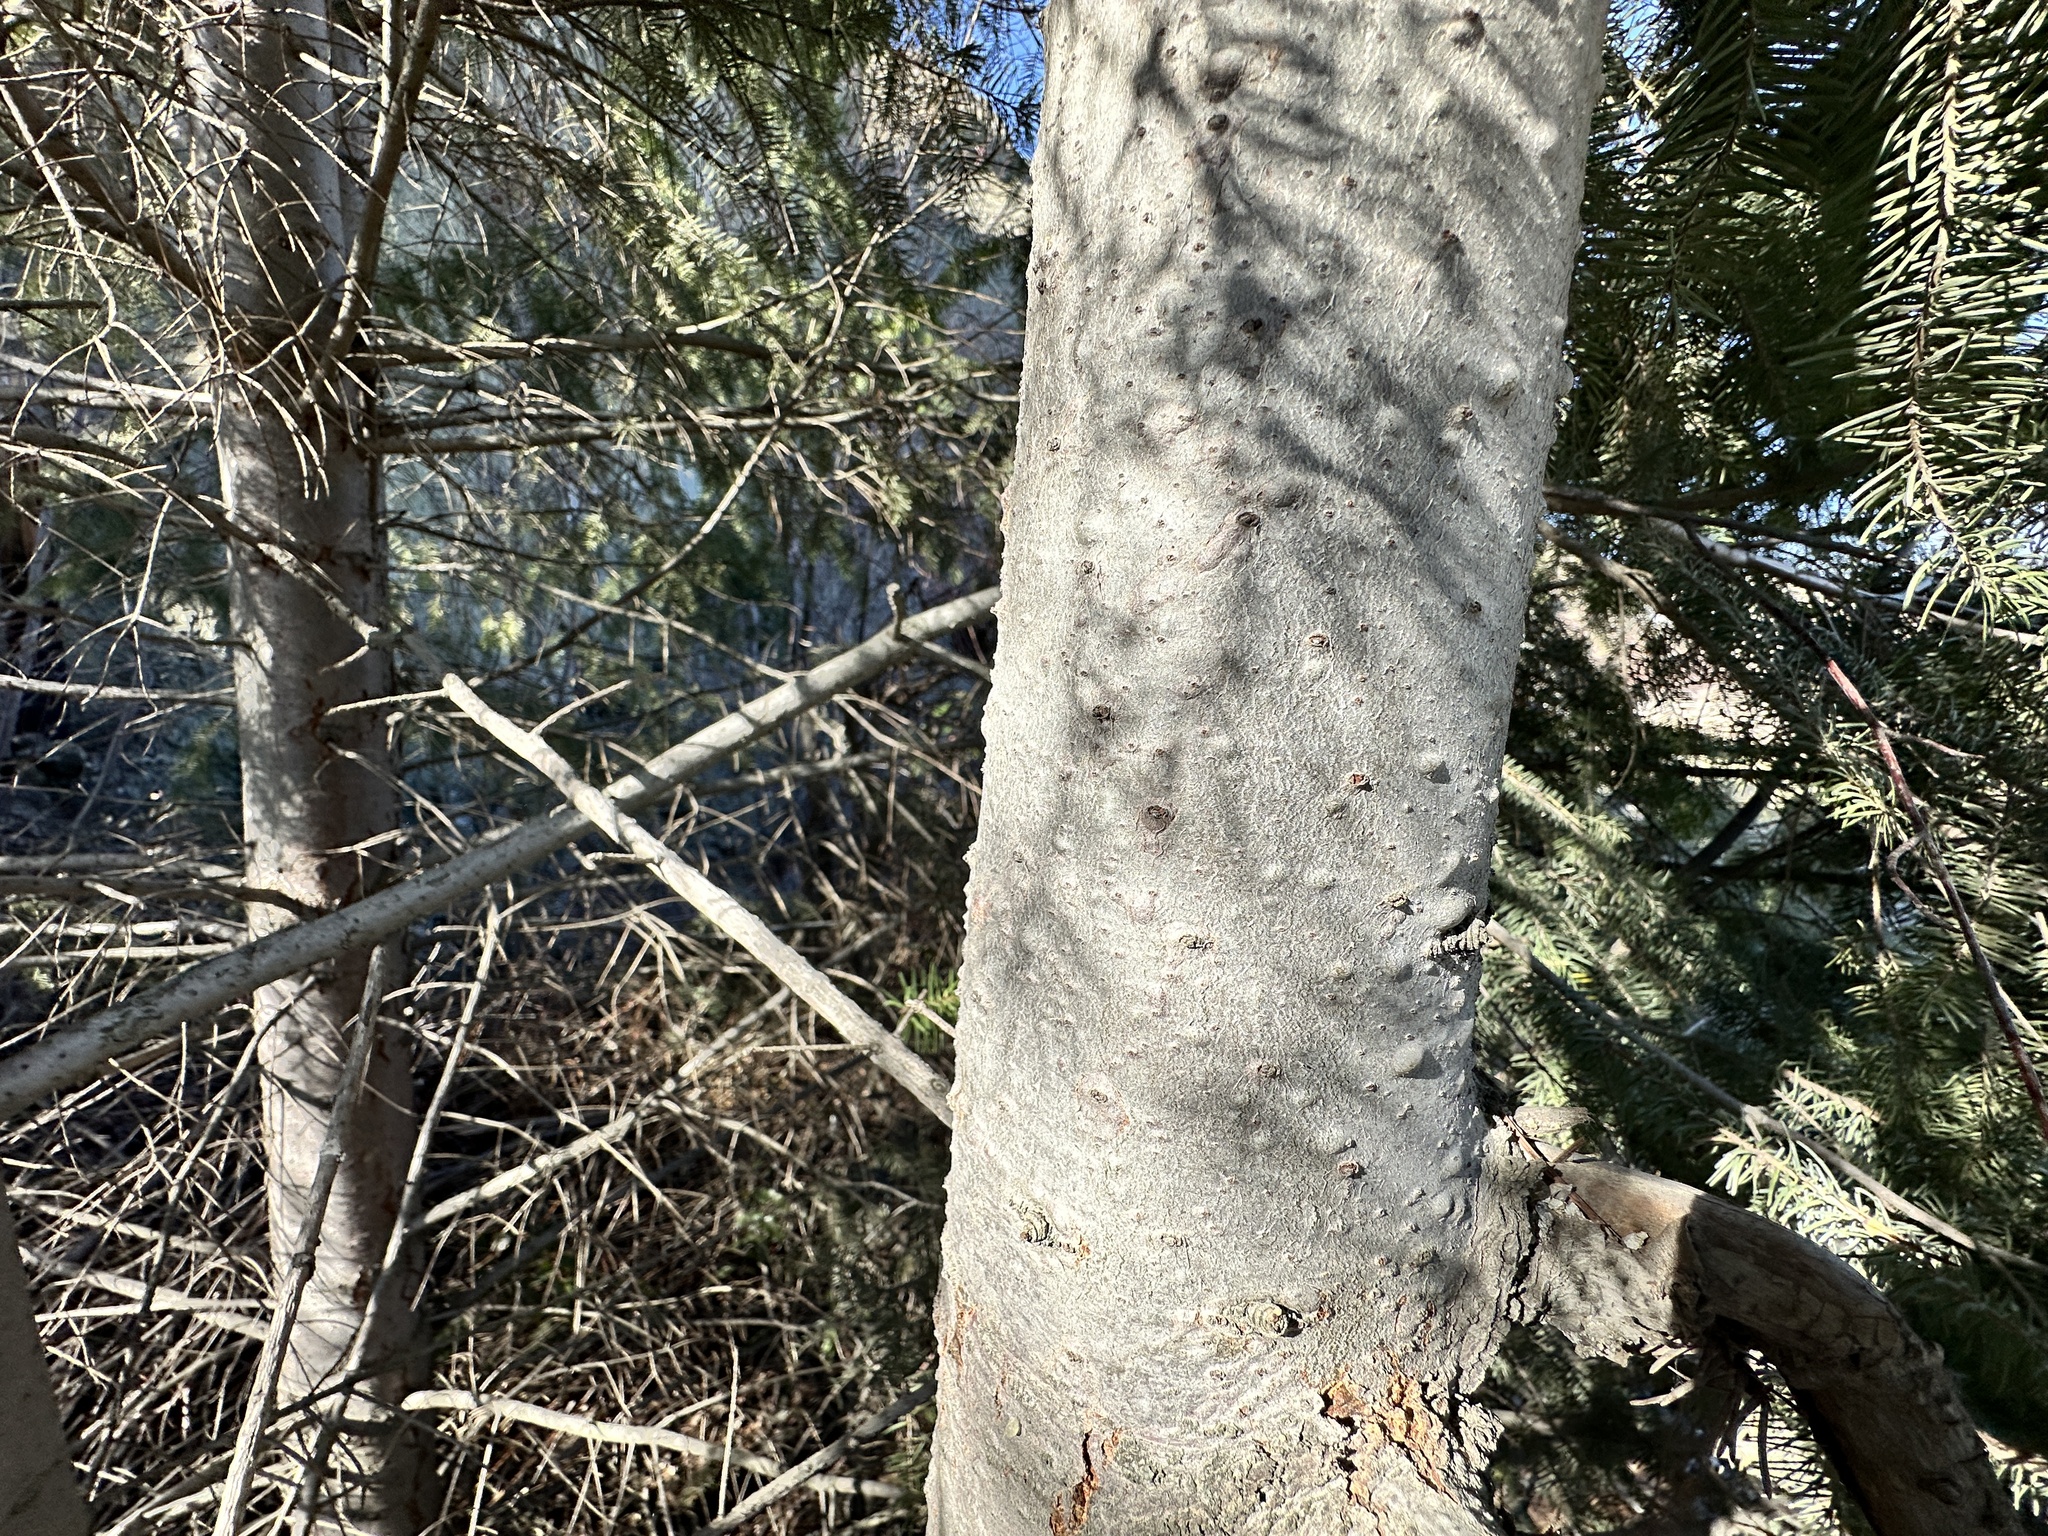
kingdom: Plantae
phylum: Tracheophyta
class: Pinopsida
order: Pinales
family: Pinaceae
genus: Pseudotsuga
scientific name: Pseudotsuga menziesii
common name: Douglas fir
